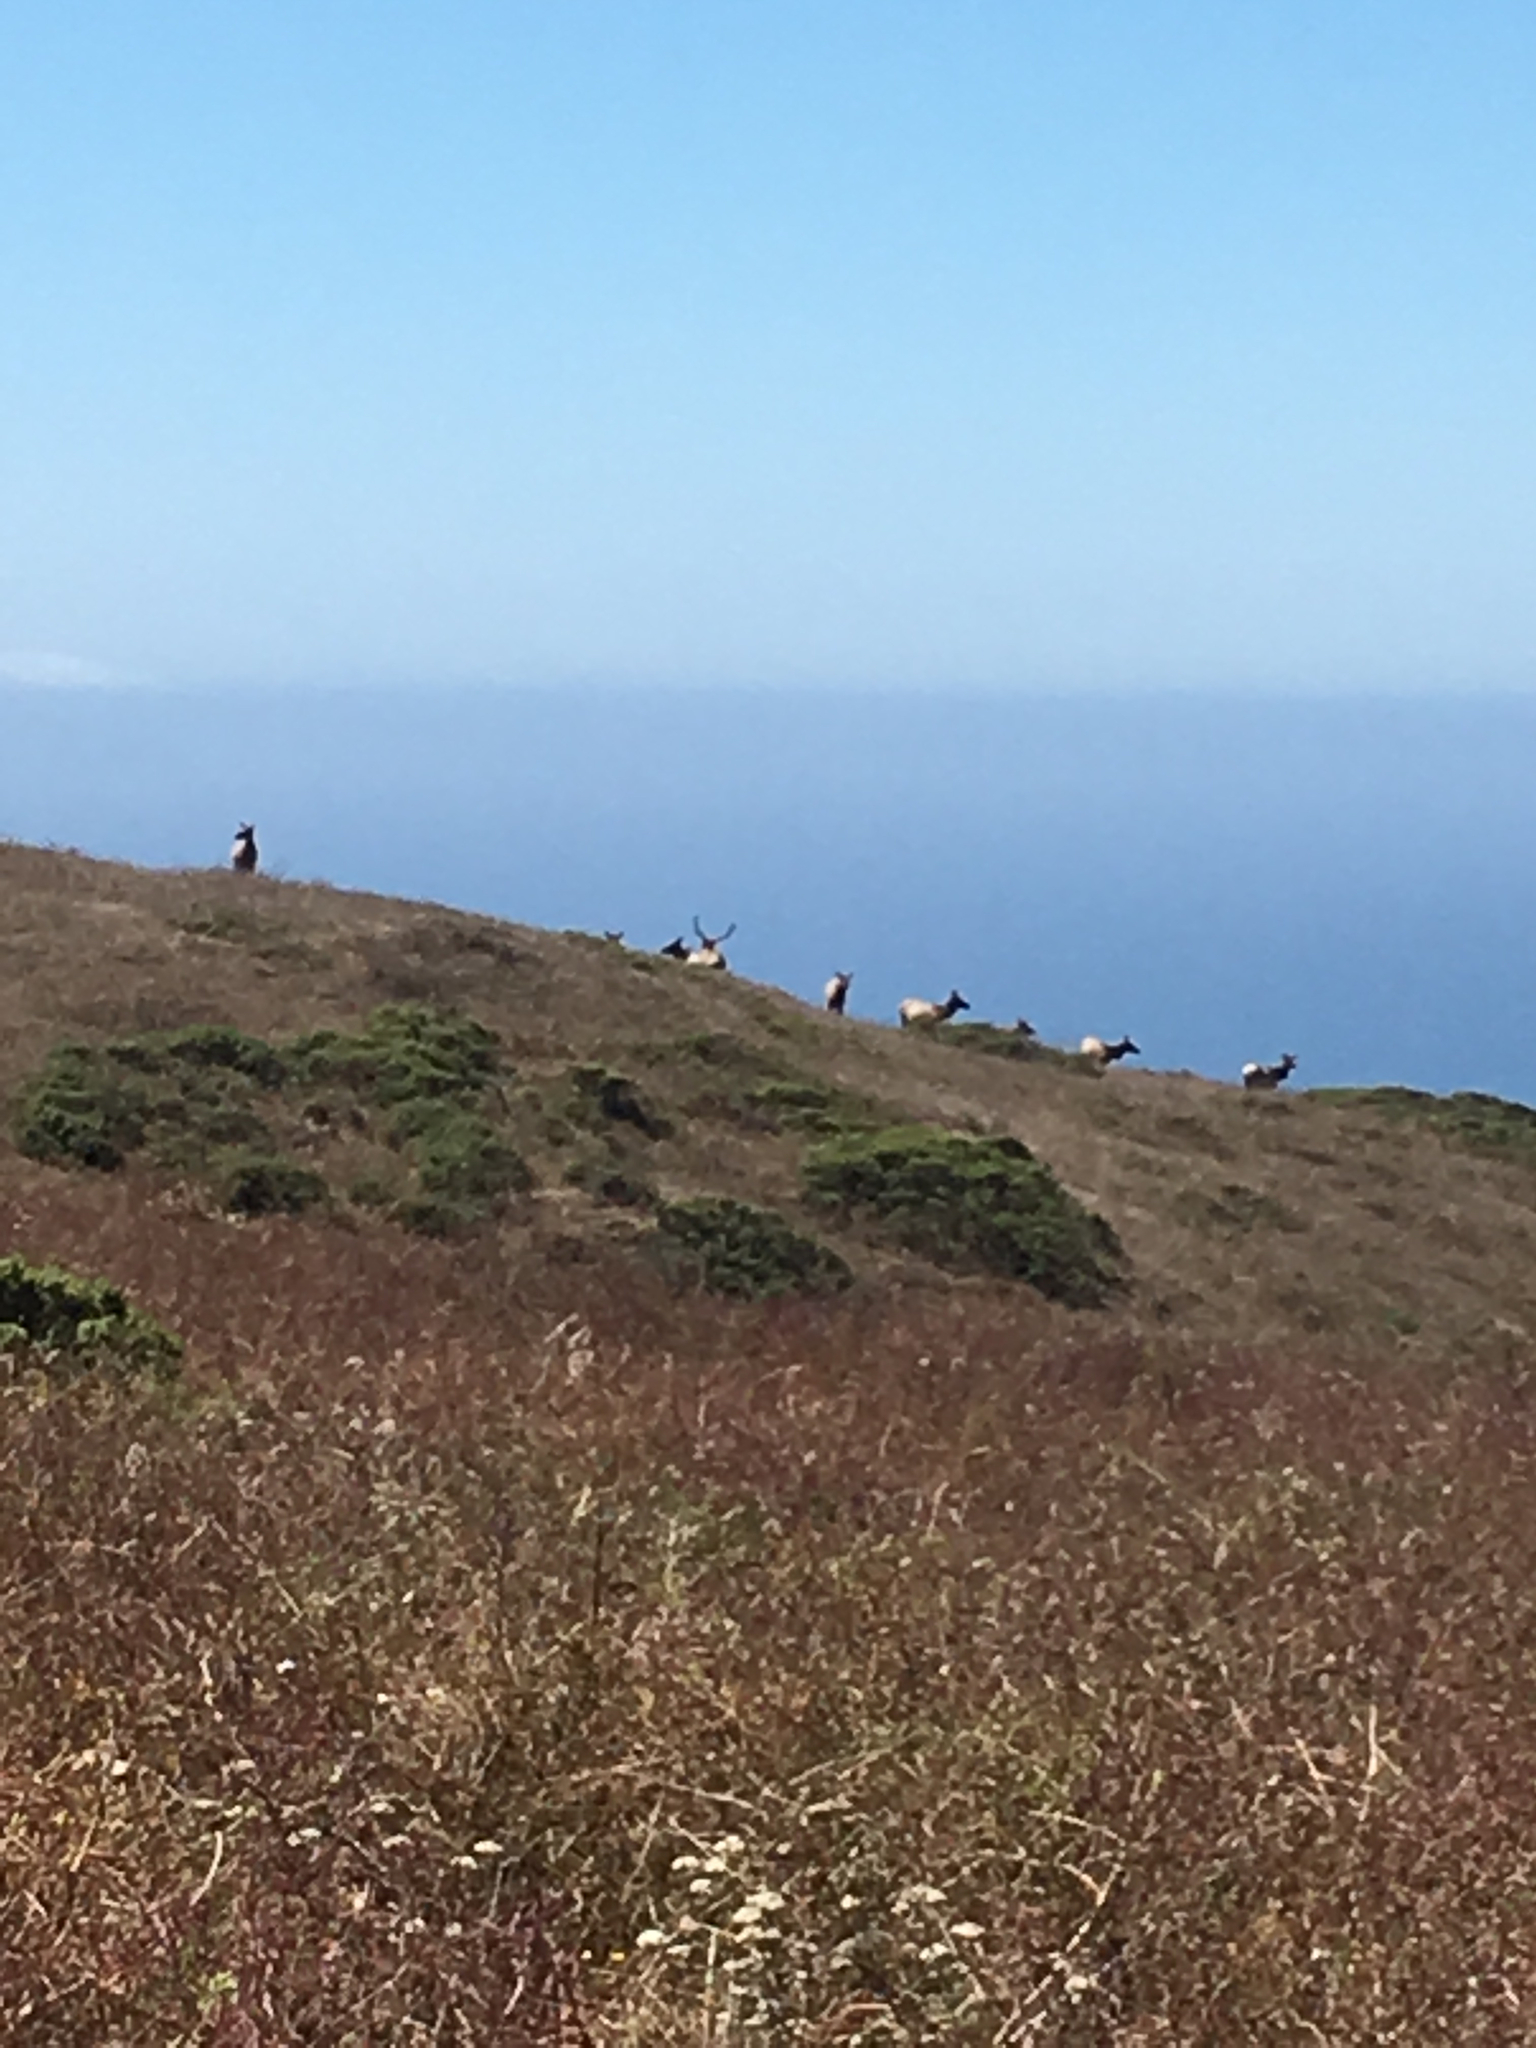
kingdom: Animalia
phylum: Chordata
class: Mammalia
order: Artiodactyla
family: Cervidae
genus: Cervus
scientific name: Cervus elaphus
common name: Red deer
